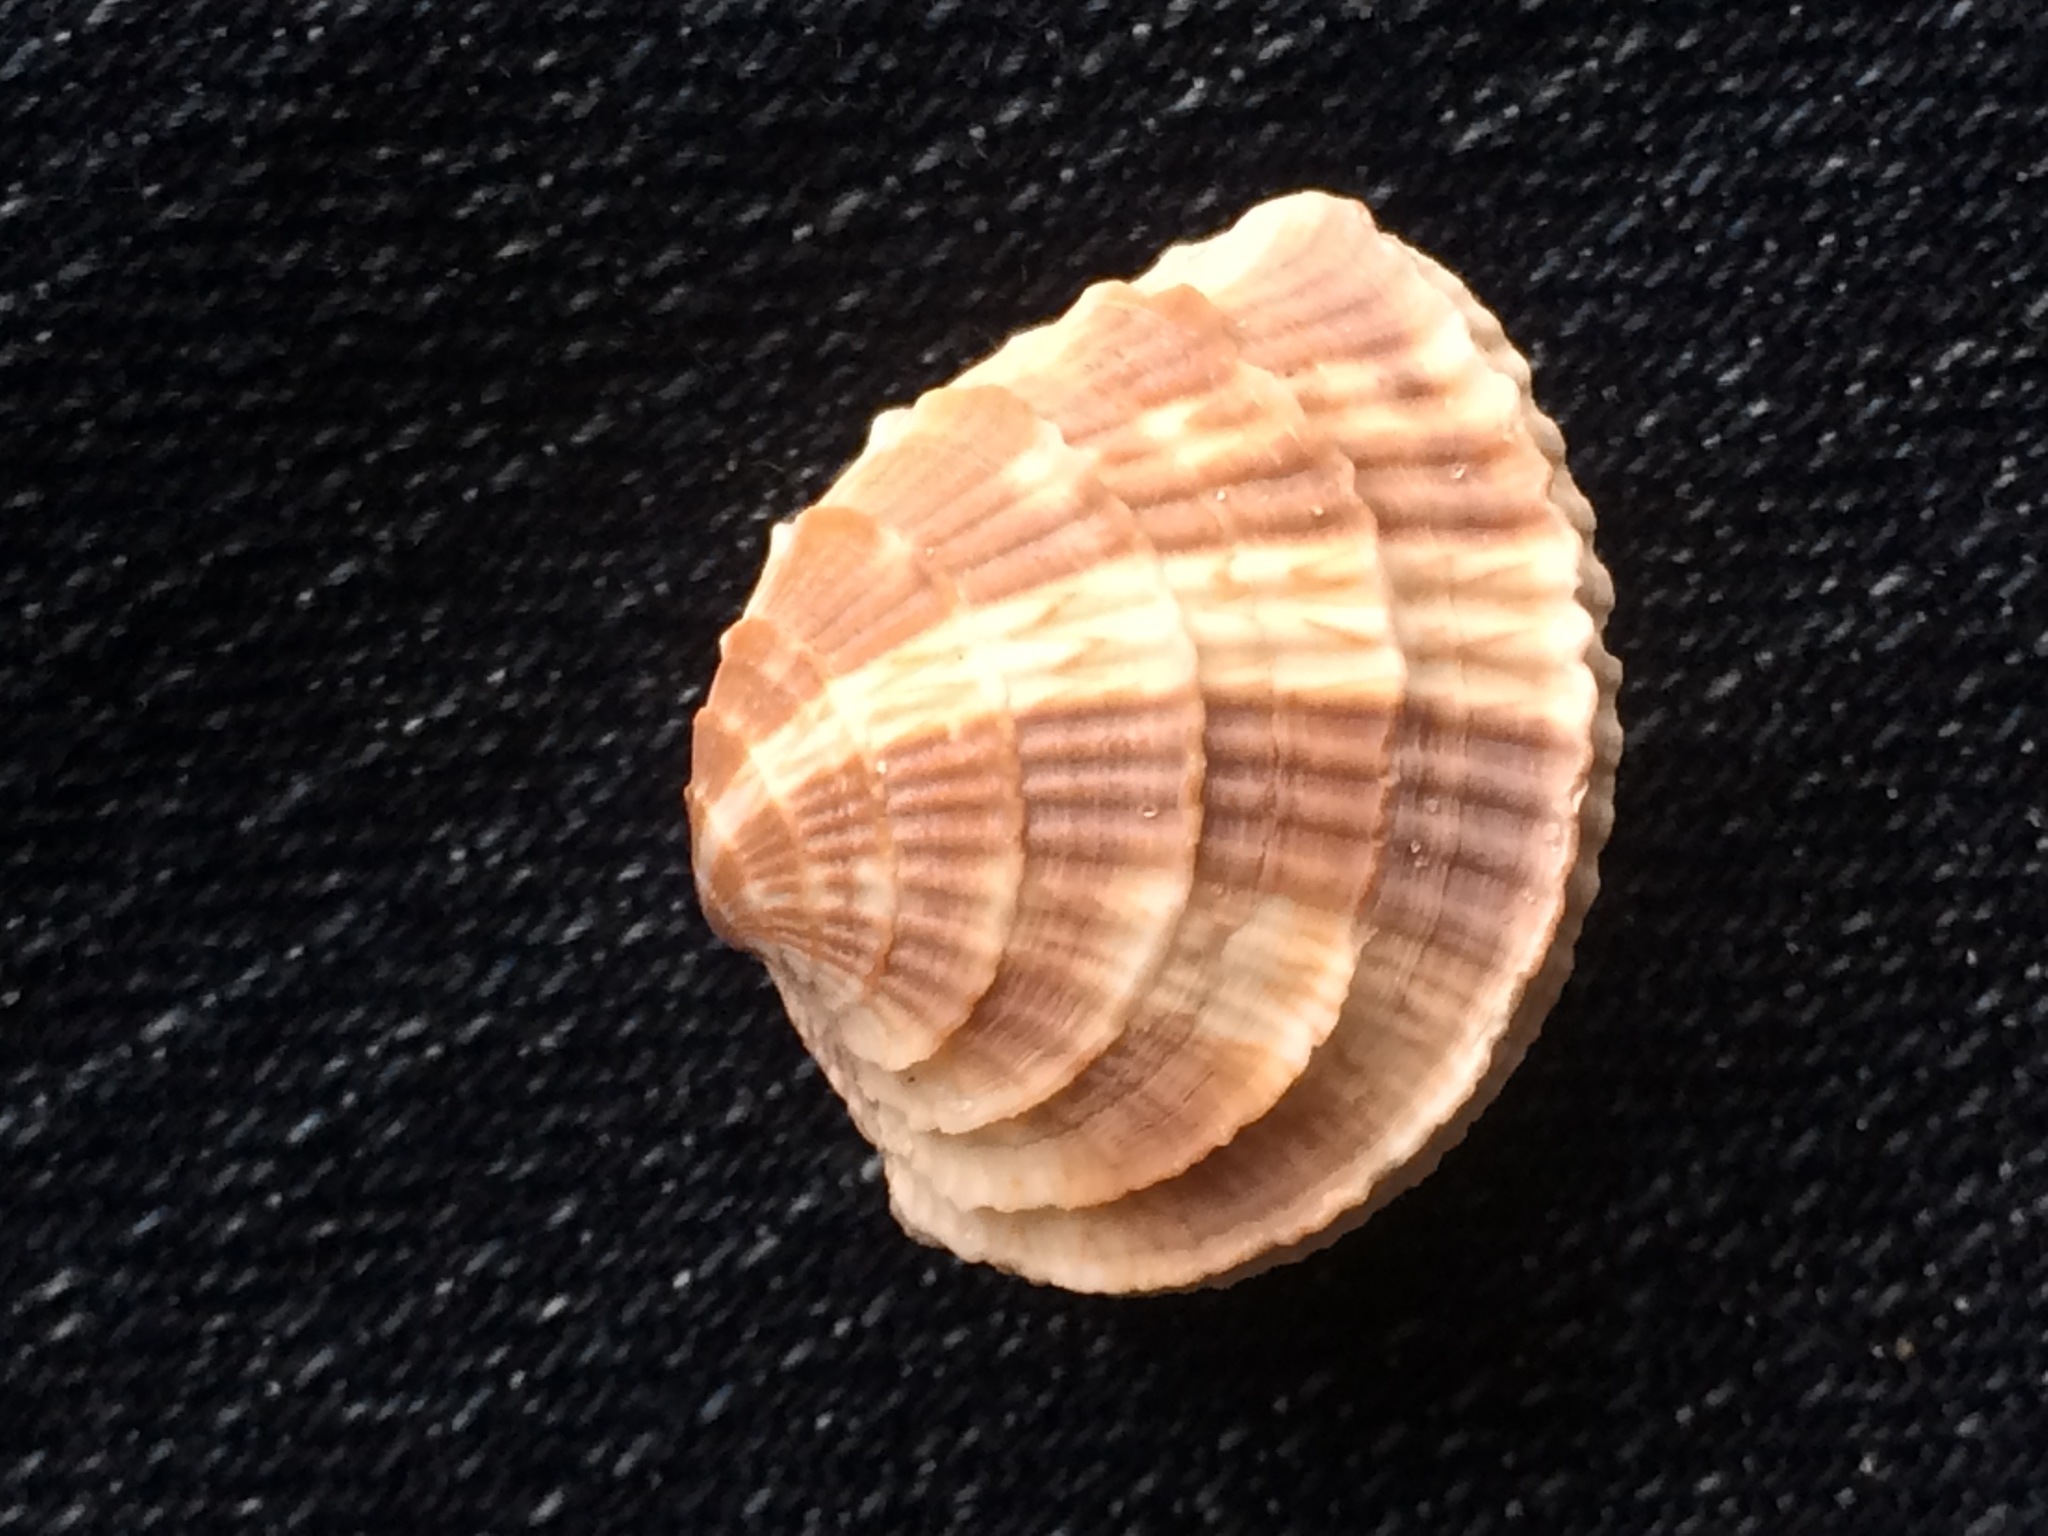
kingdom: Animalia
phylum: Mollusca
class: Bivalvia
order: Venerida
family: Veneridae
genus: Chione
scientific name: Chione elevata
